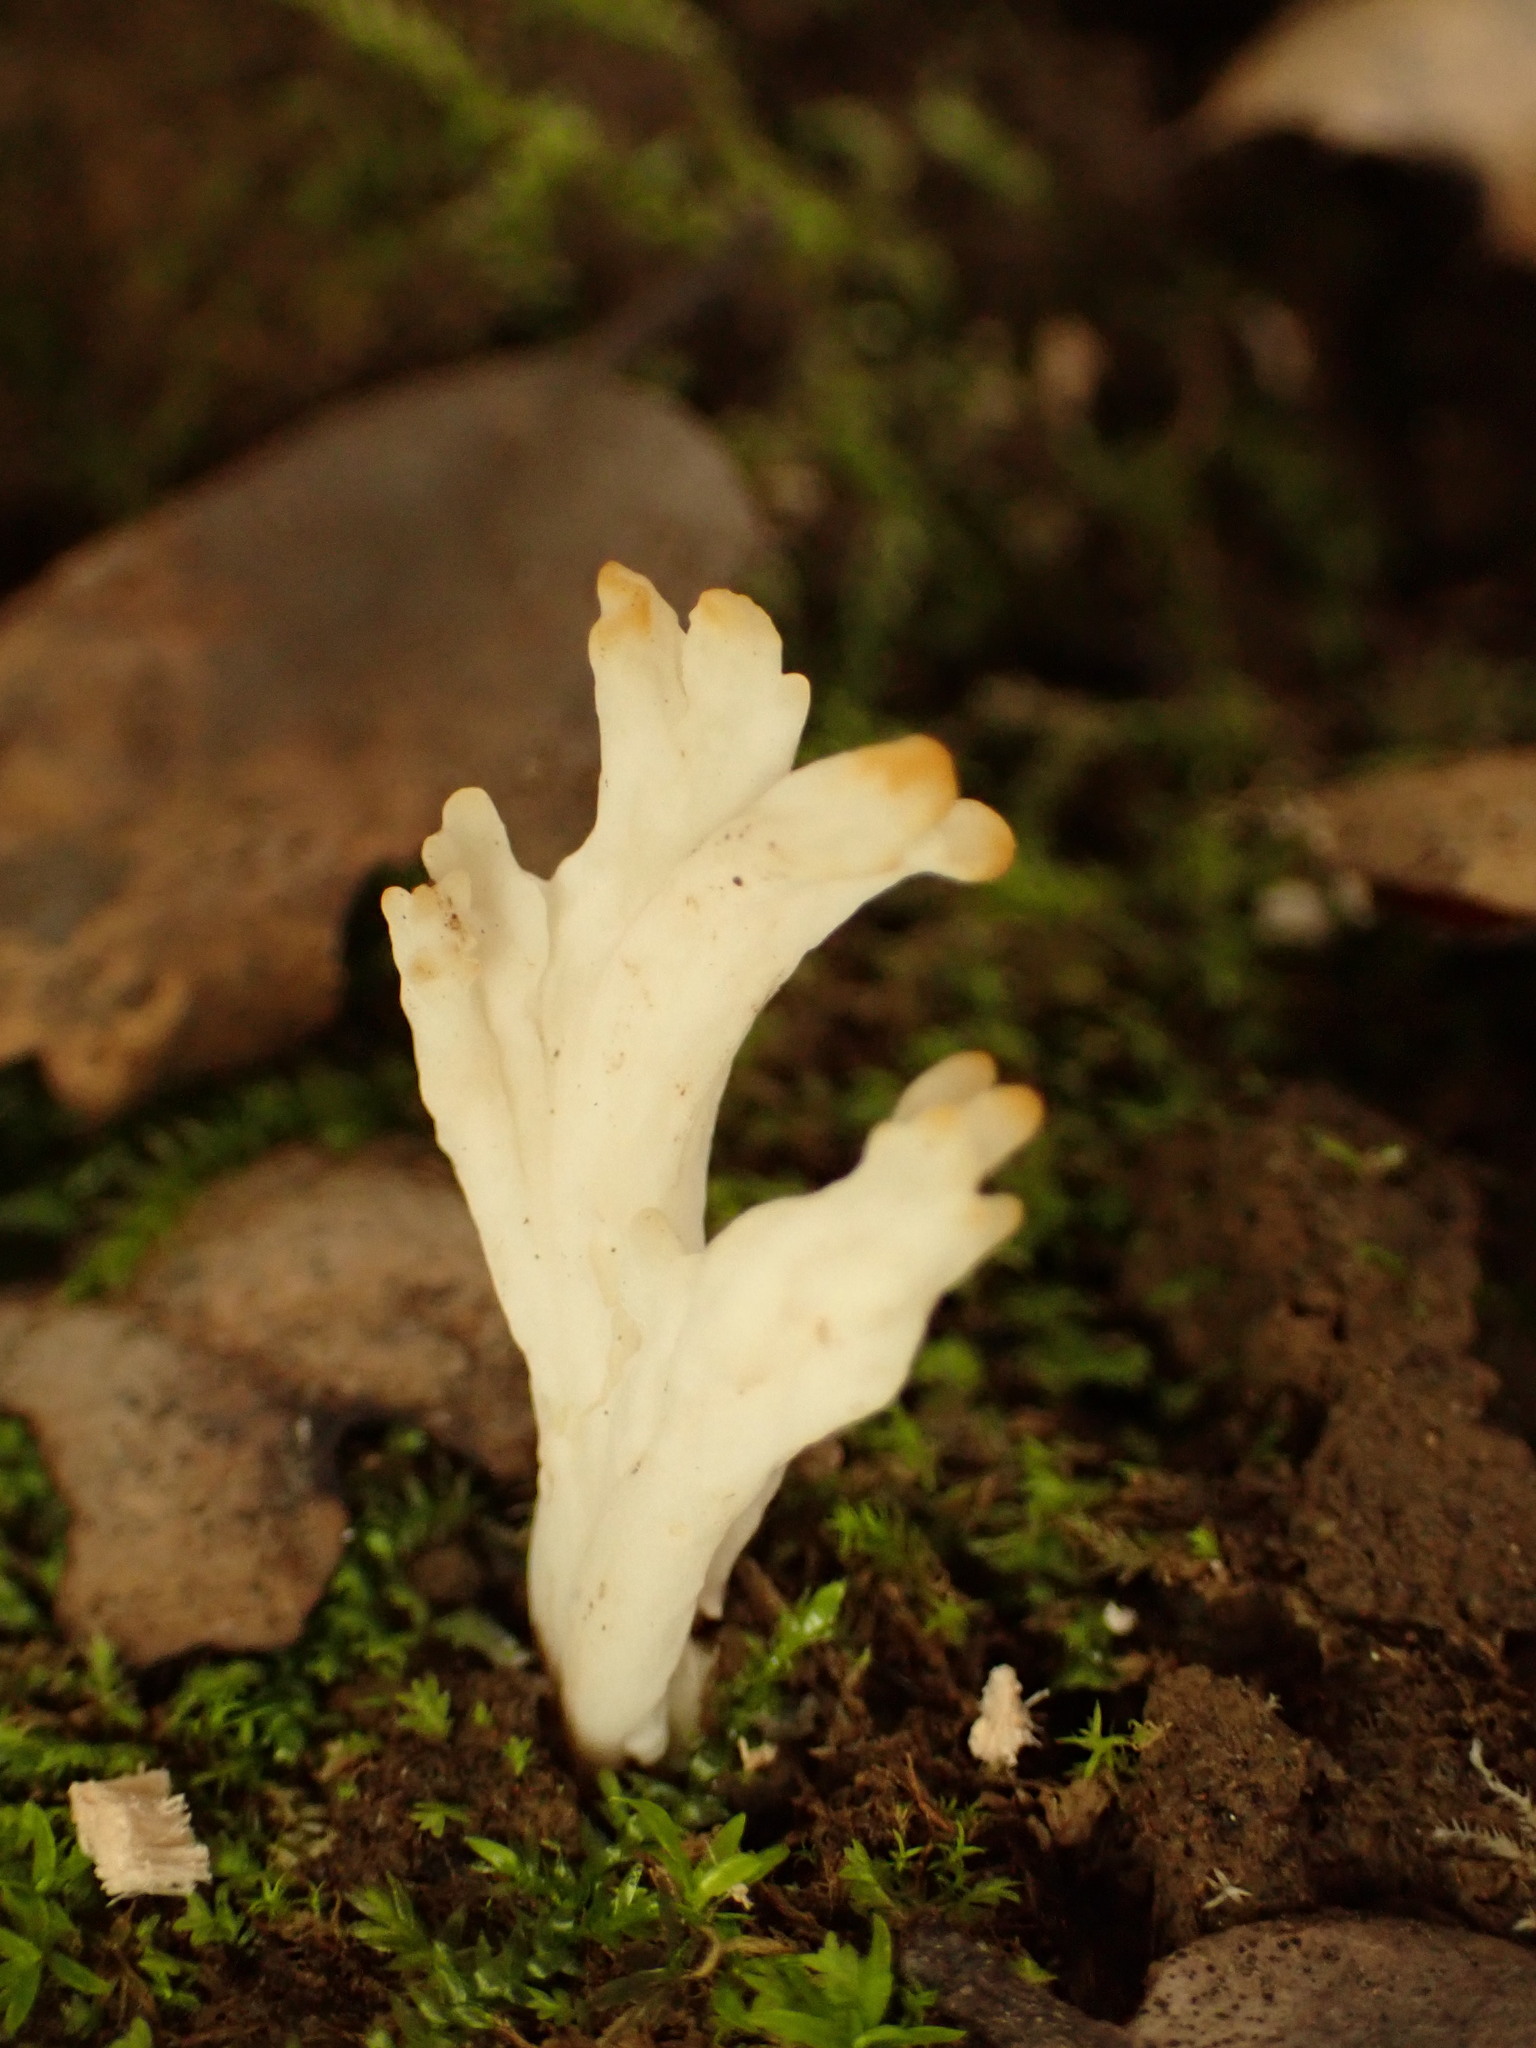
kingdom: Fungi
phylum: Basidiomycota
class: Agaricomycetes
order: Cantharellales
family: Hydnaceae
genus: Clavulina
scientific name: Clavulina rugosa
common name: Wrinkled club
